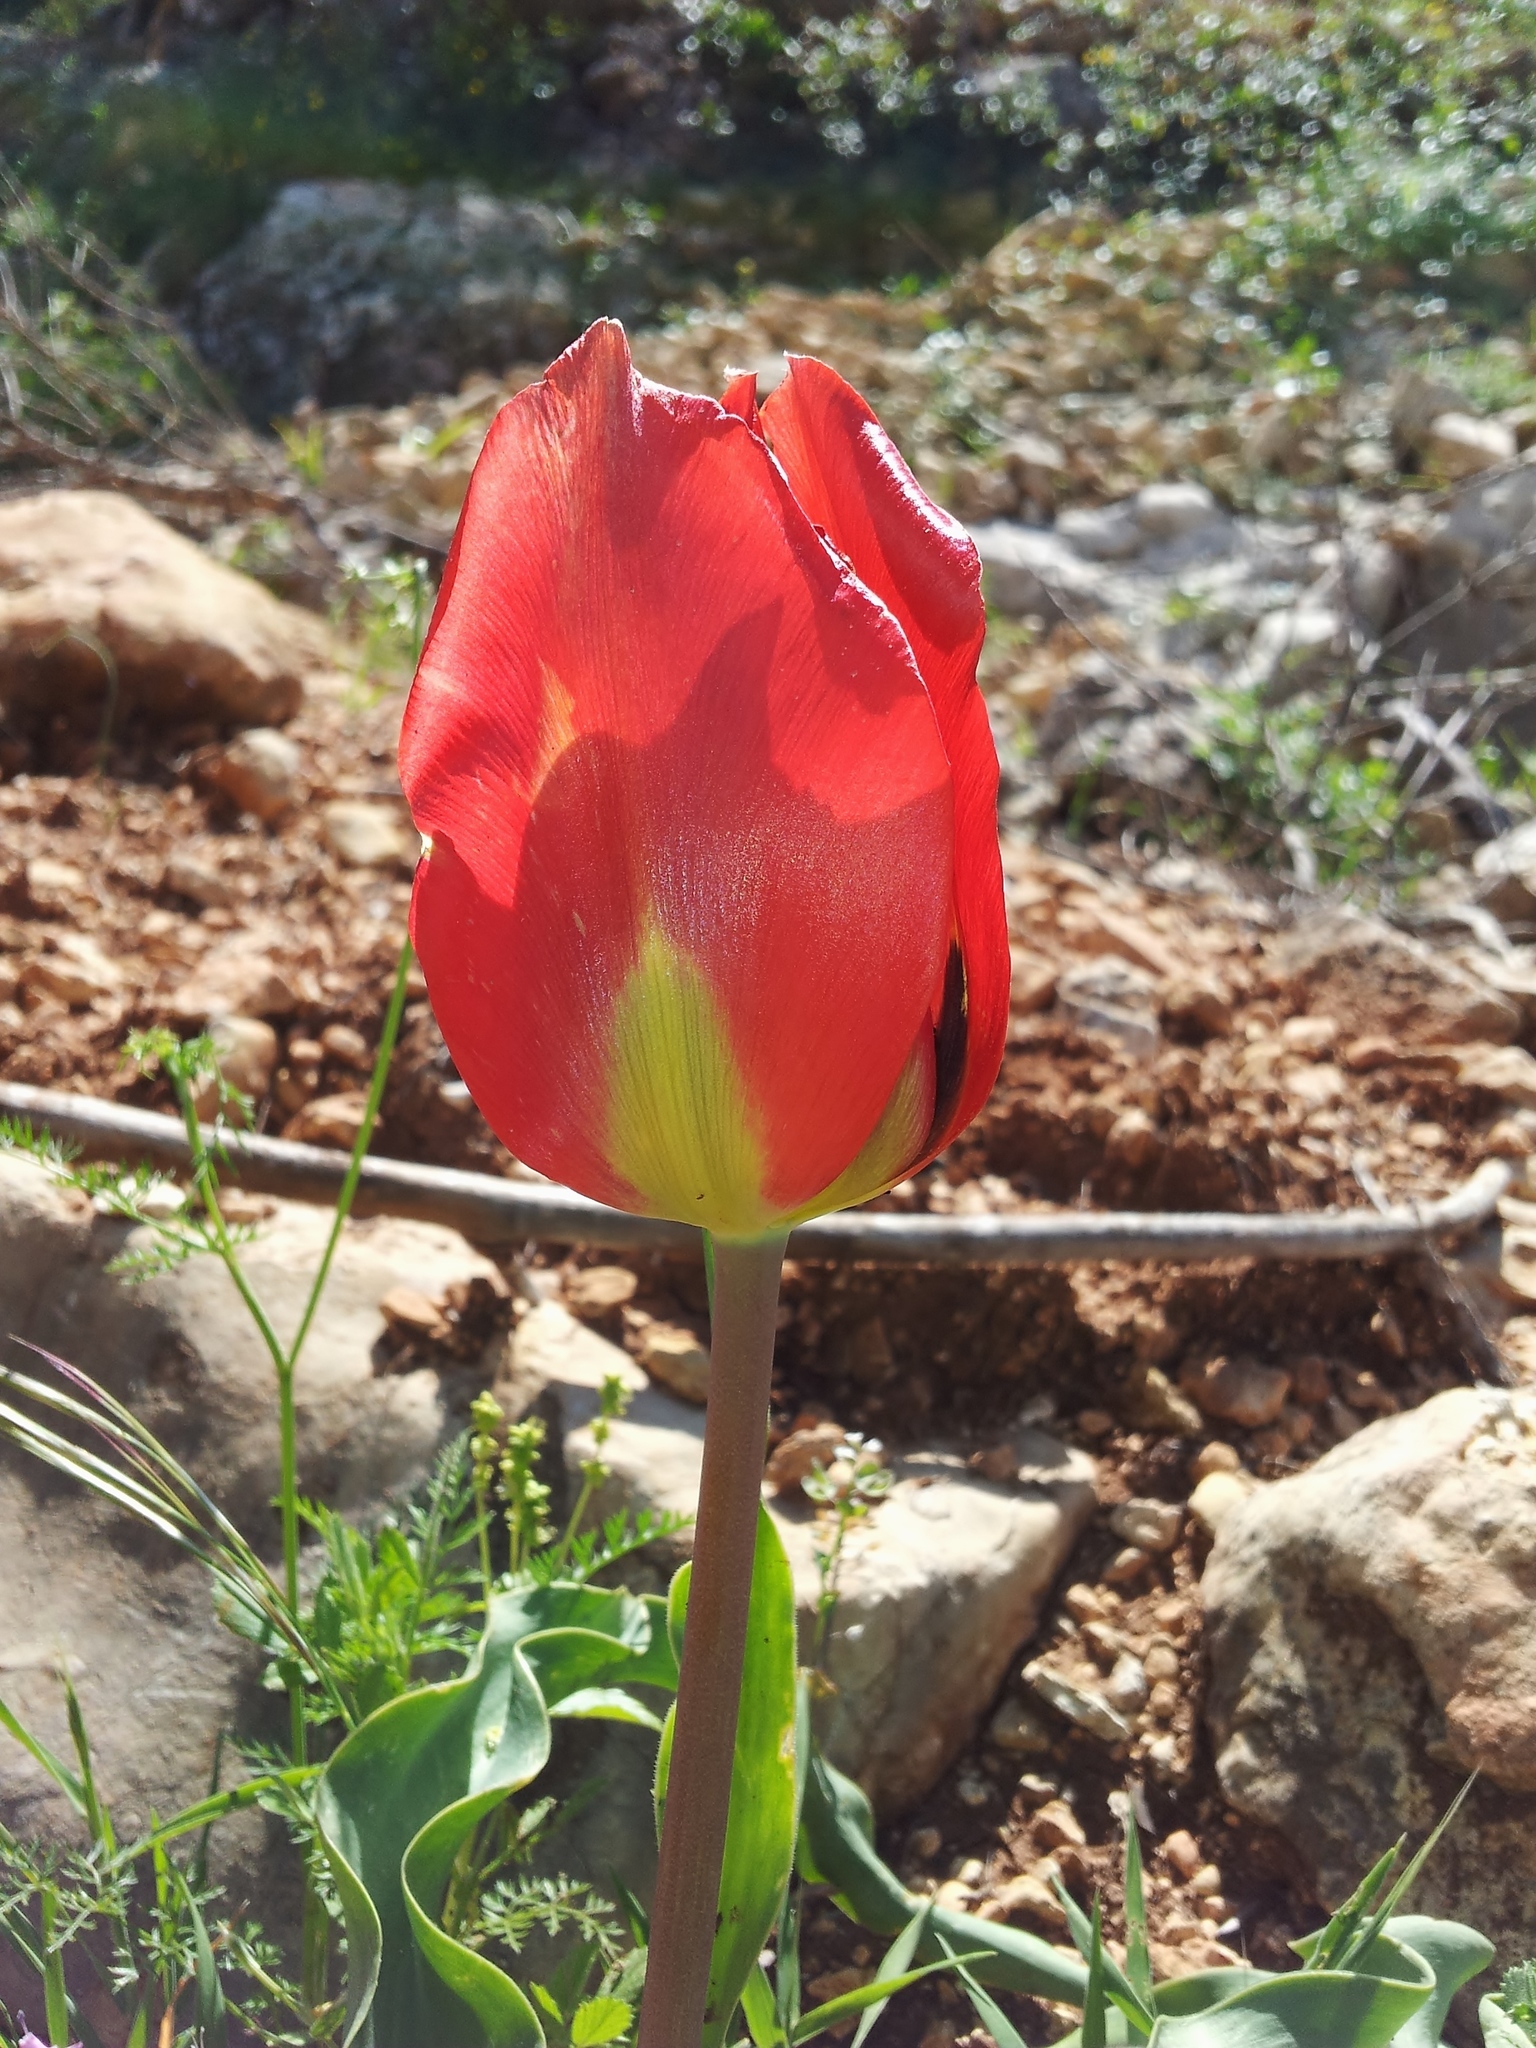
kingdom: Plantae
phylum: Tracheophyta
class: Liliopsida
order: Liliales
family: Liliaceae
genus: Tulipa
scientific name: Tulipa agenensis
